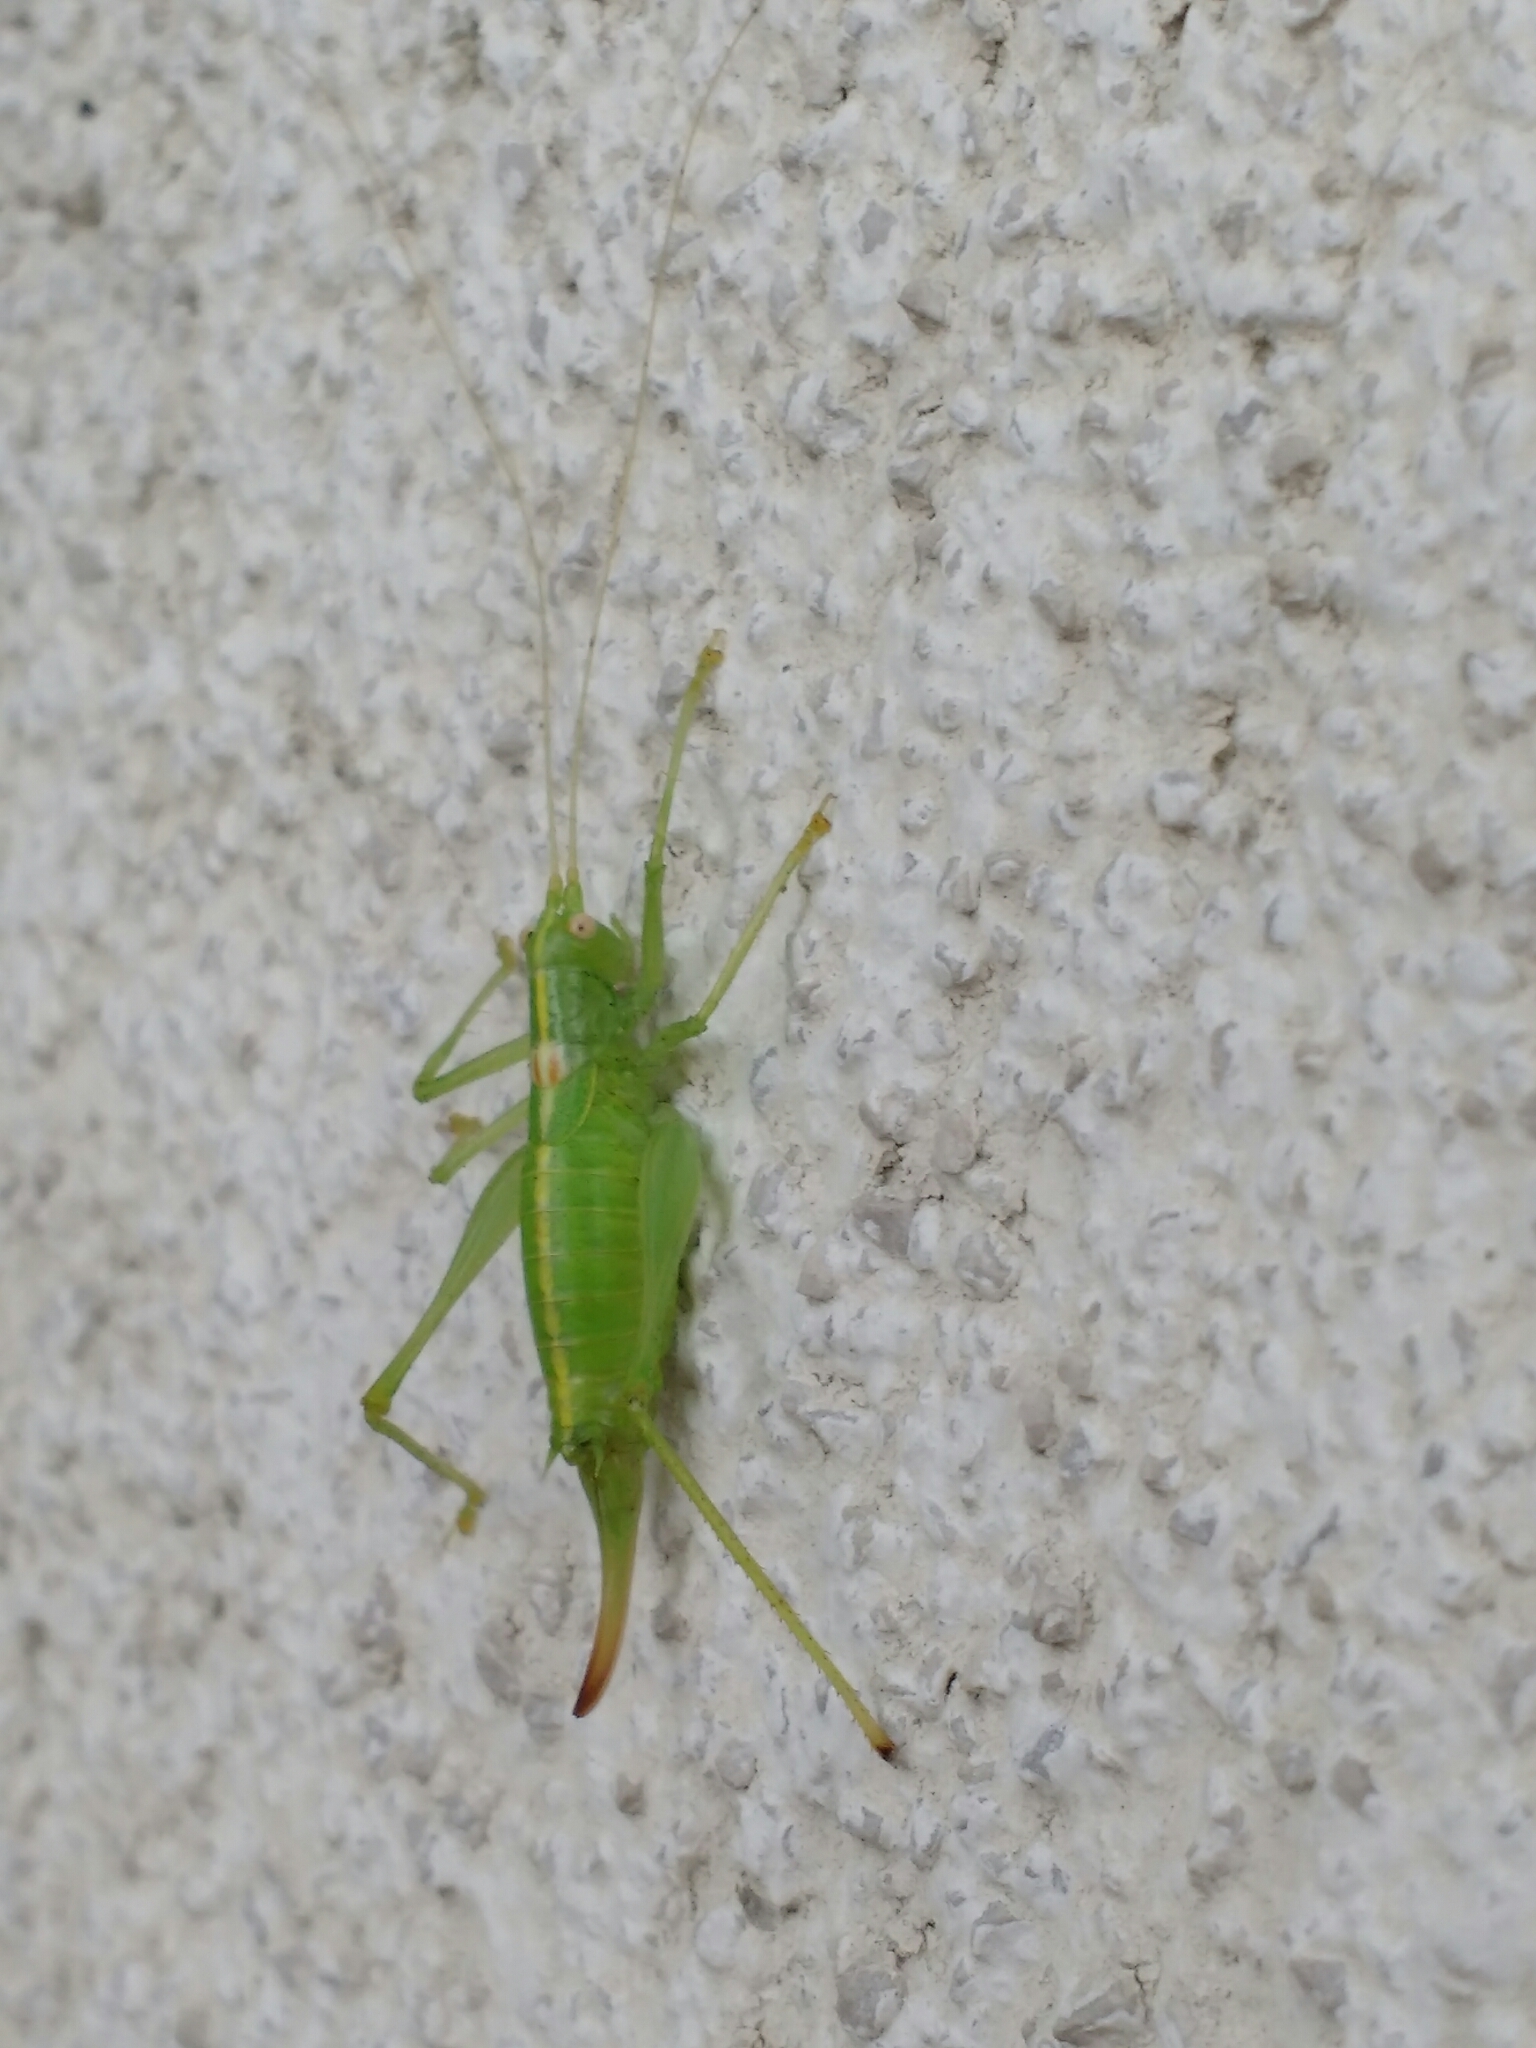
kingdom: Animalia
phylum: Arthropoda
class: Insecta
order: Orthoptera
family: Tettigoniidae
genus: Meconema
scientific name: Meconema meridionale
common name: Southern oak bush-cricket
